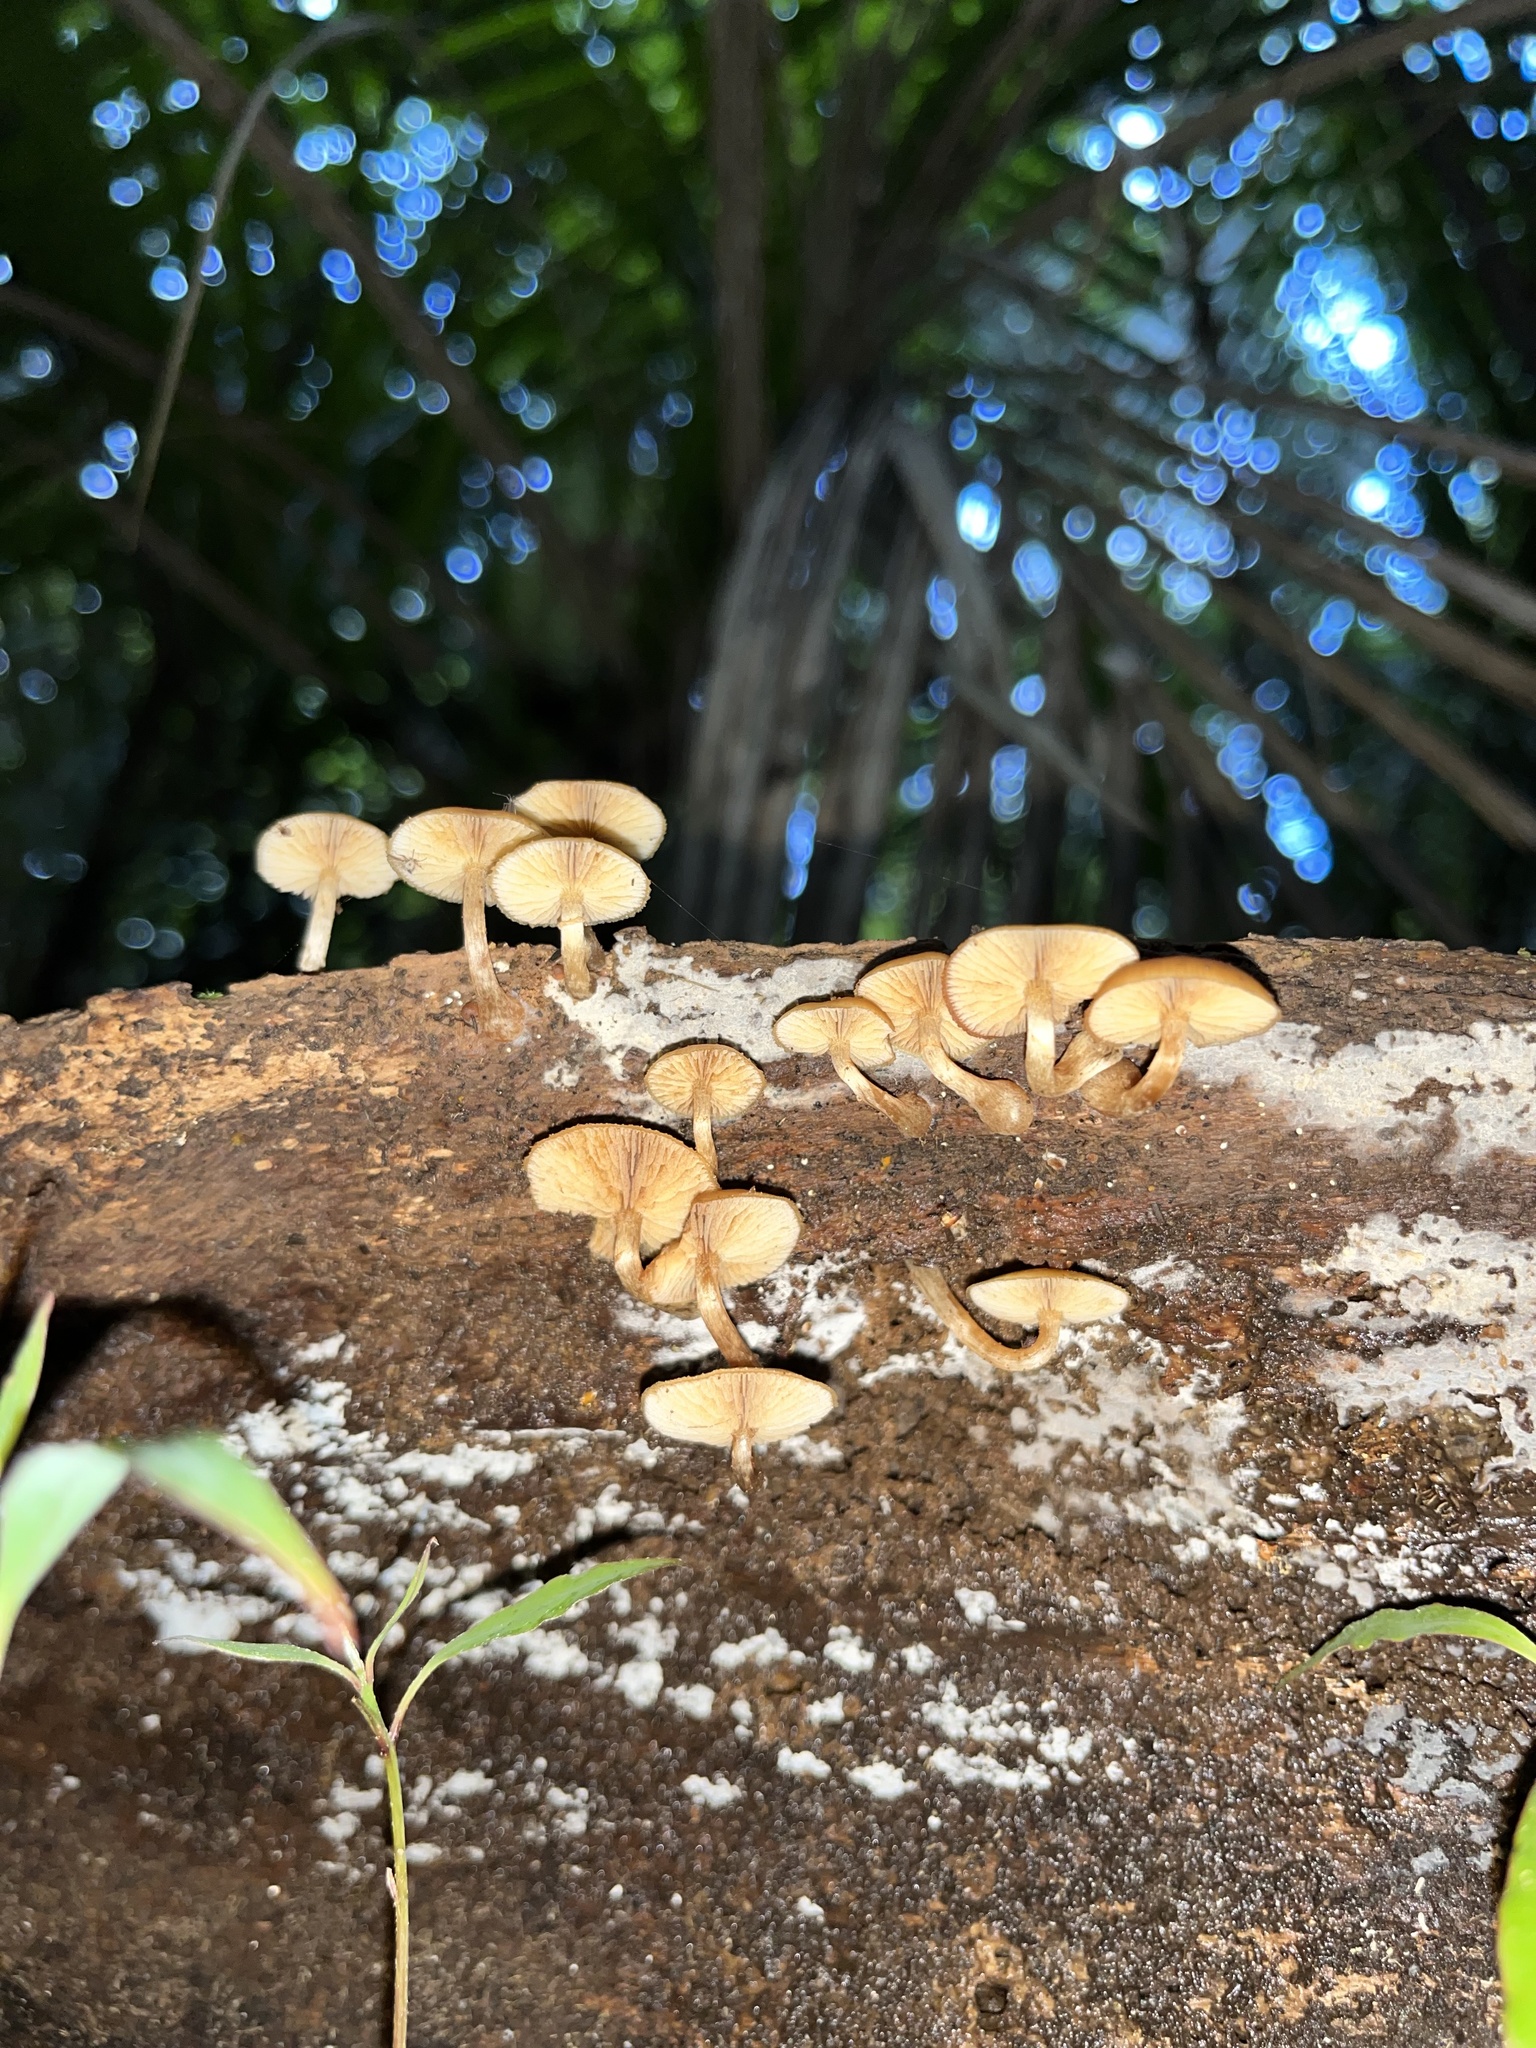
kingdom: Fungi
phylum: Basidiomycota
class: Agaricomycetes
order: Agaricales
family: Hymenogastraceae
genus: Galerina
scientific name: Galerina patagonica
